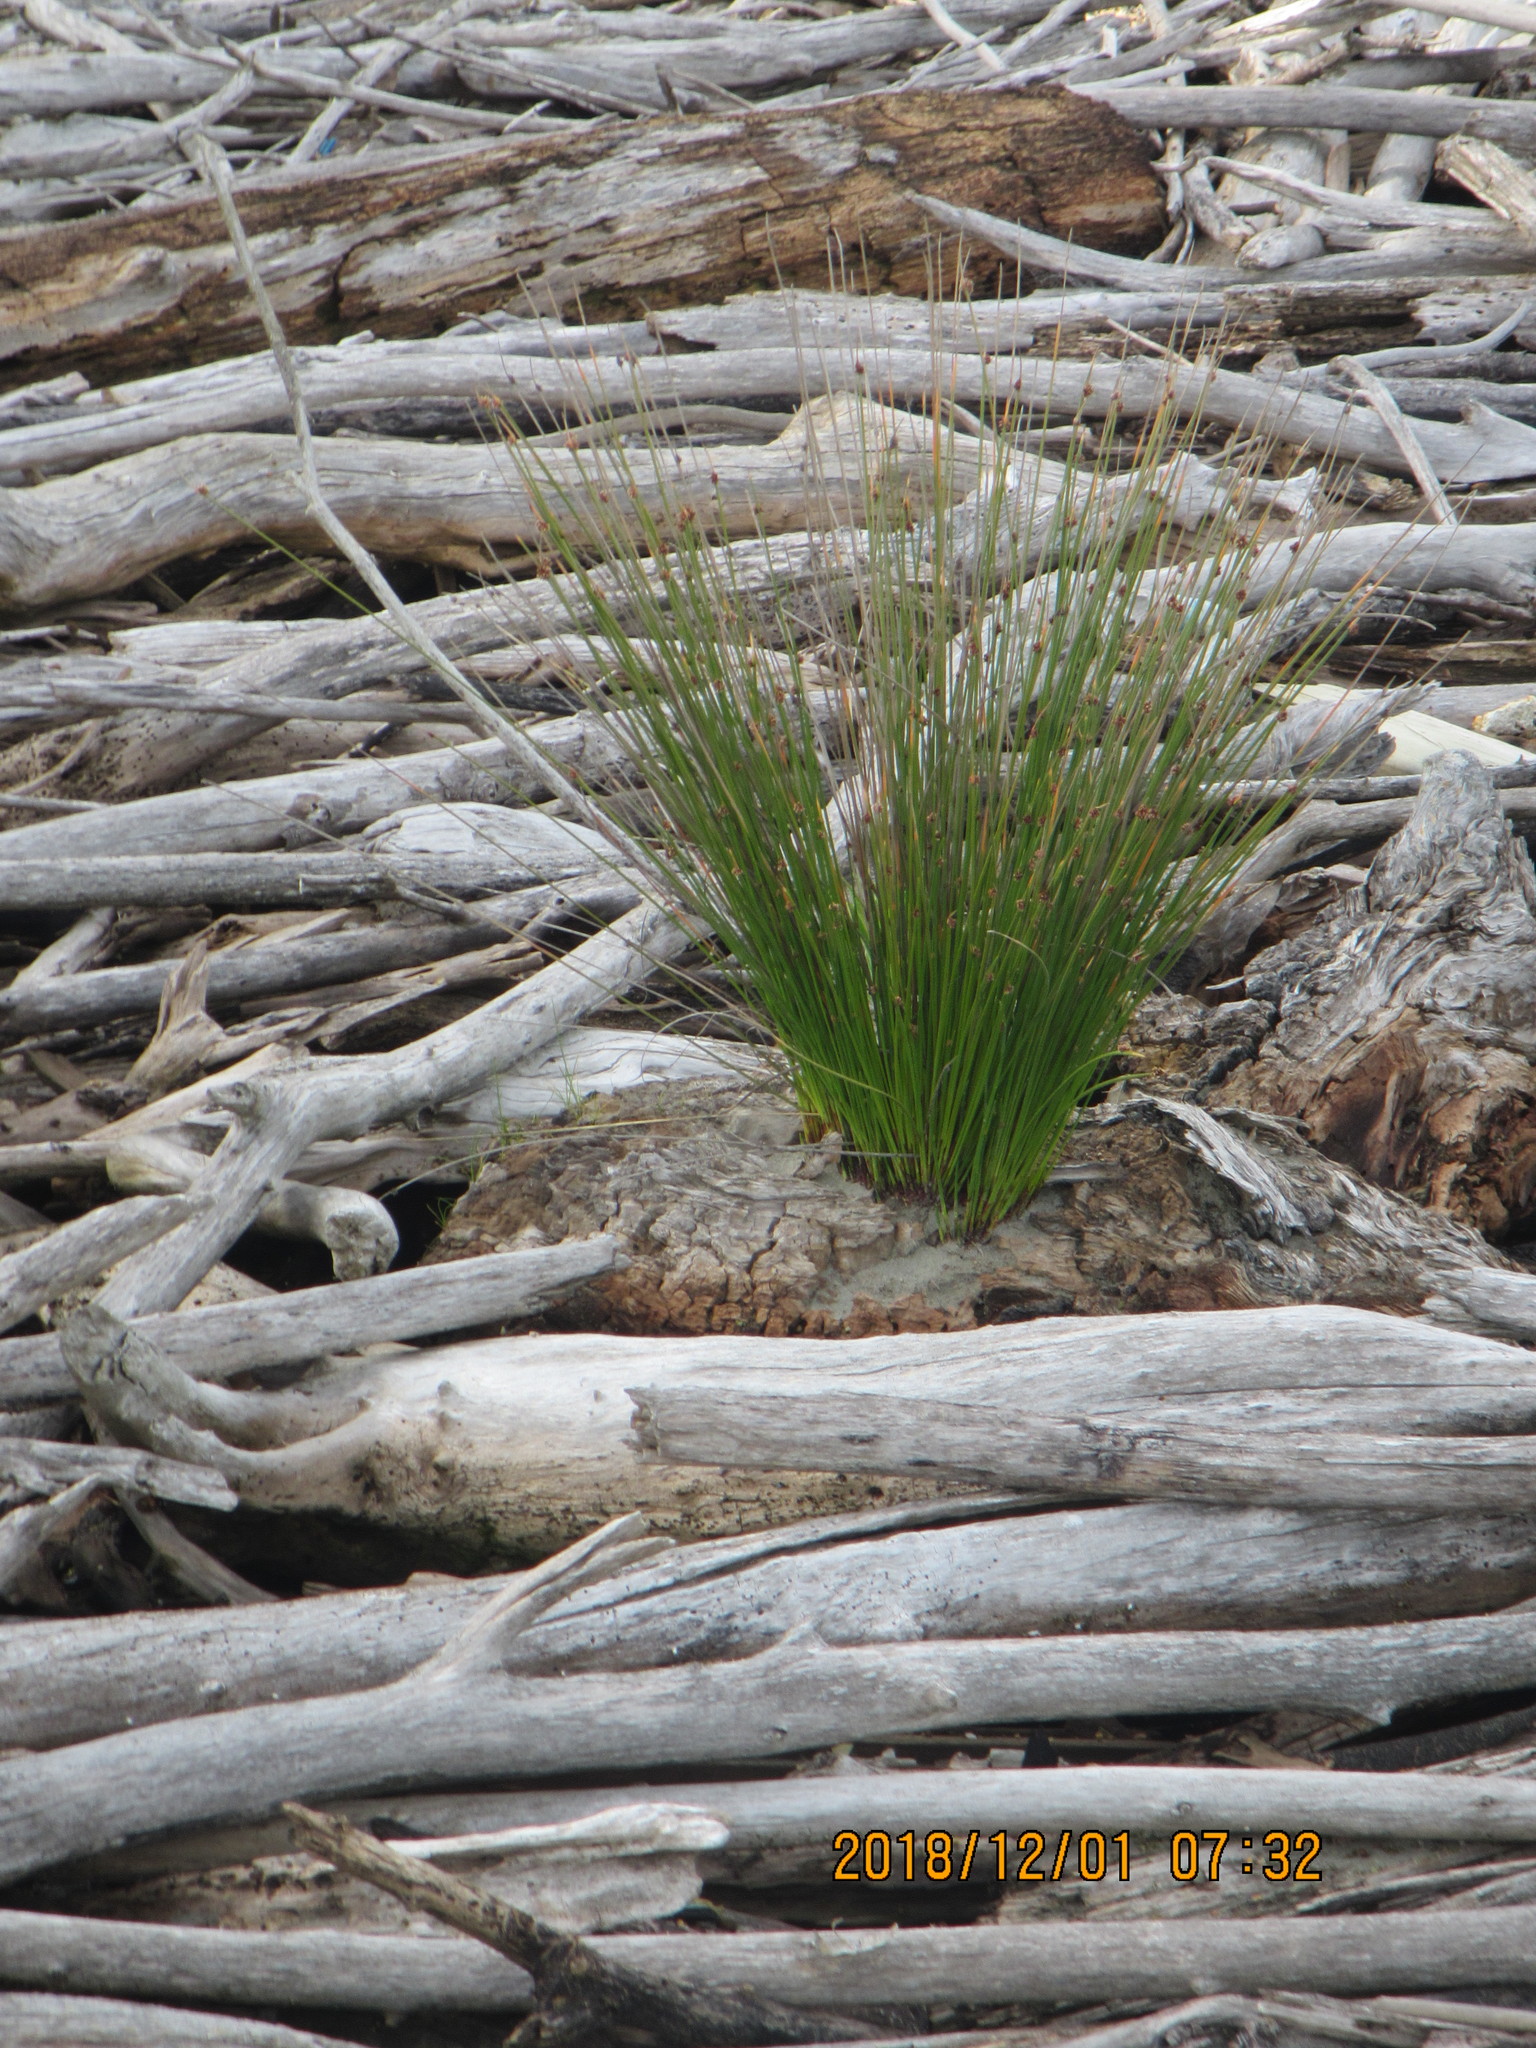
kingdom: Plantae
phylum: Tracheophyta
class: Liliopsida
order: Poales
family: Cyperaceae
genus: Ficinia
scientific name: Ficinia nodosa
